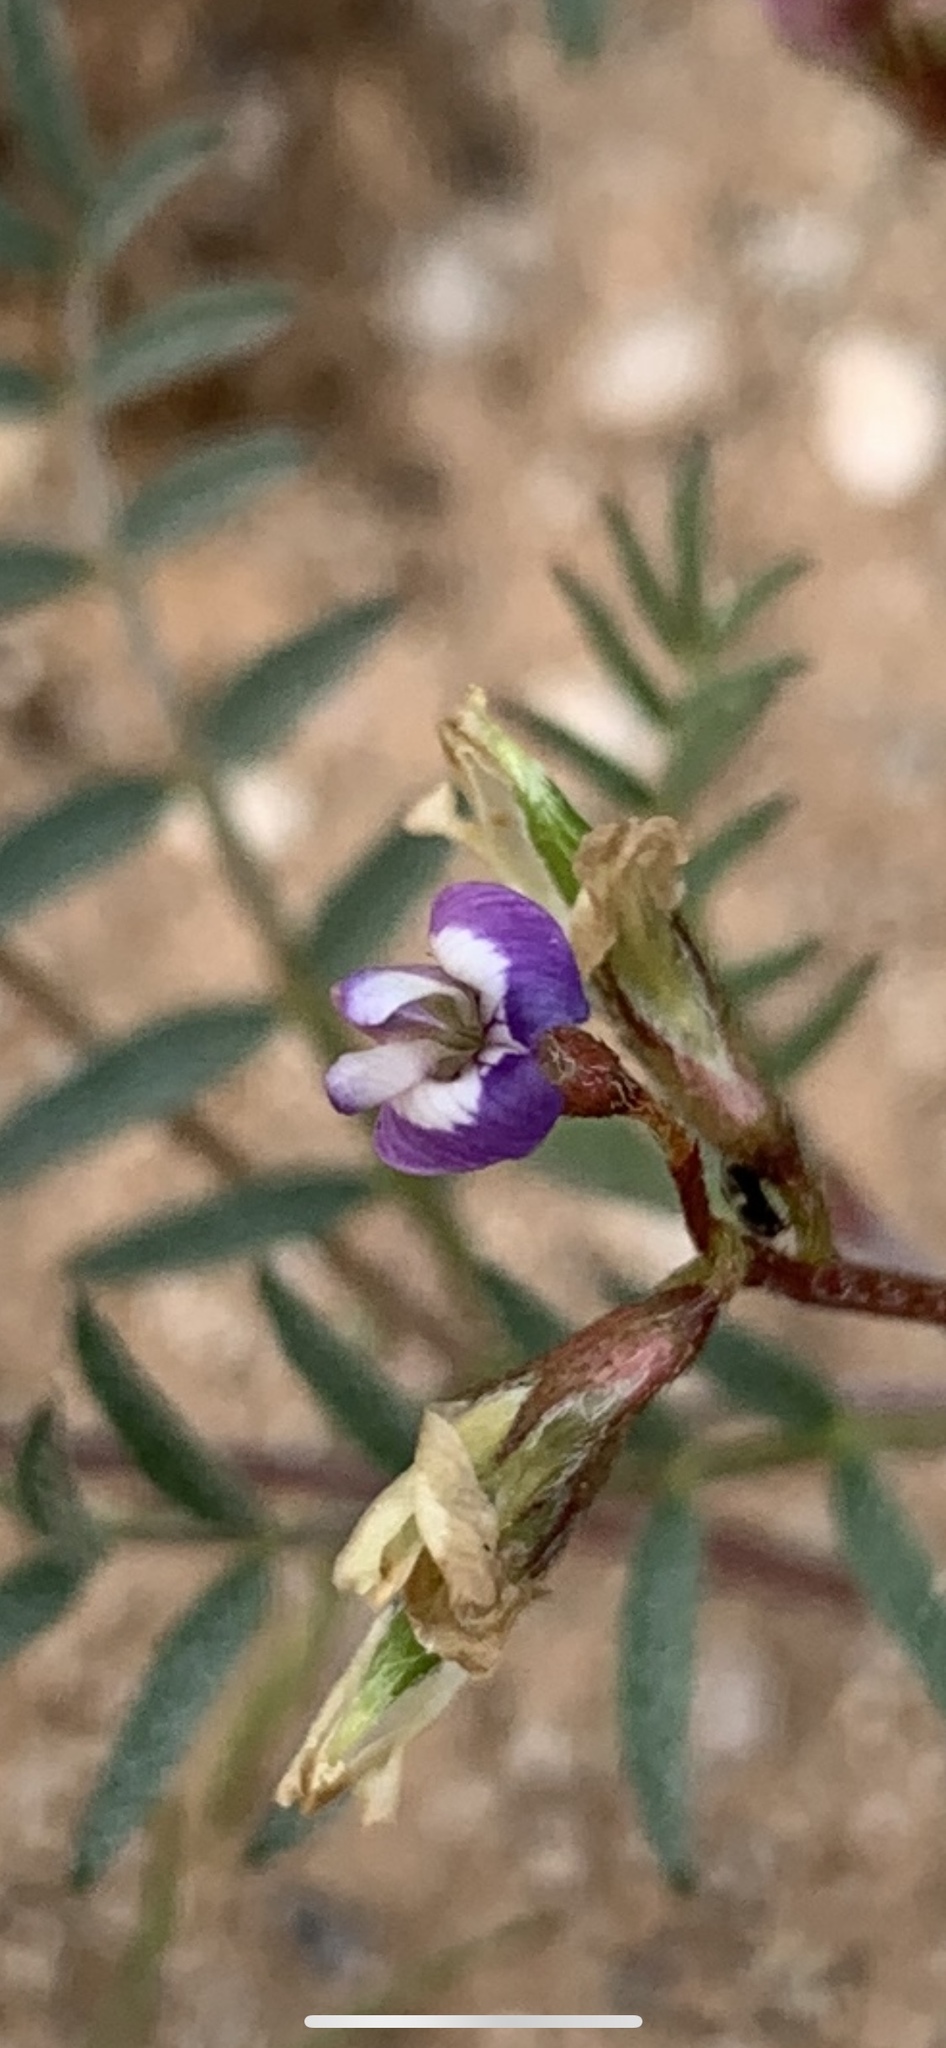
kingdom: Plantae
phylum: Tracheophyta
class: Magnoliopsida
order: Fabales
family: Fabaceae
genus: Astragalus
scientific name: Astragalus nuttallianus
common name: Smallflowered milkvetch
